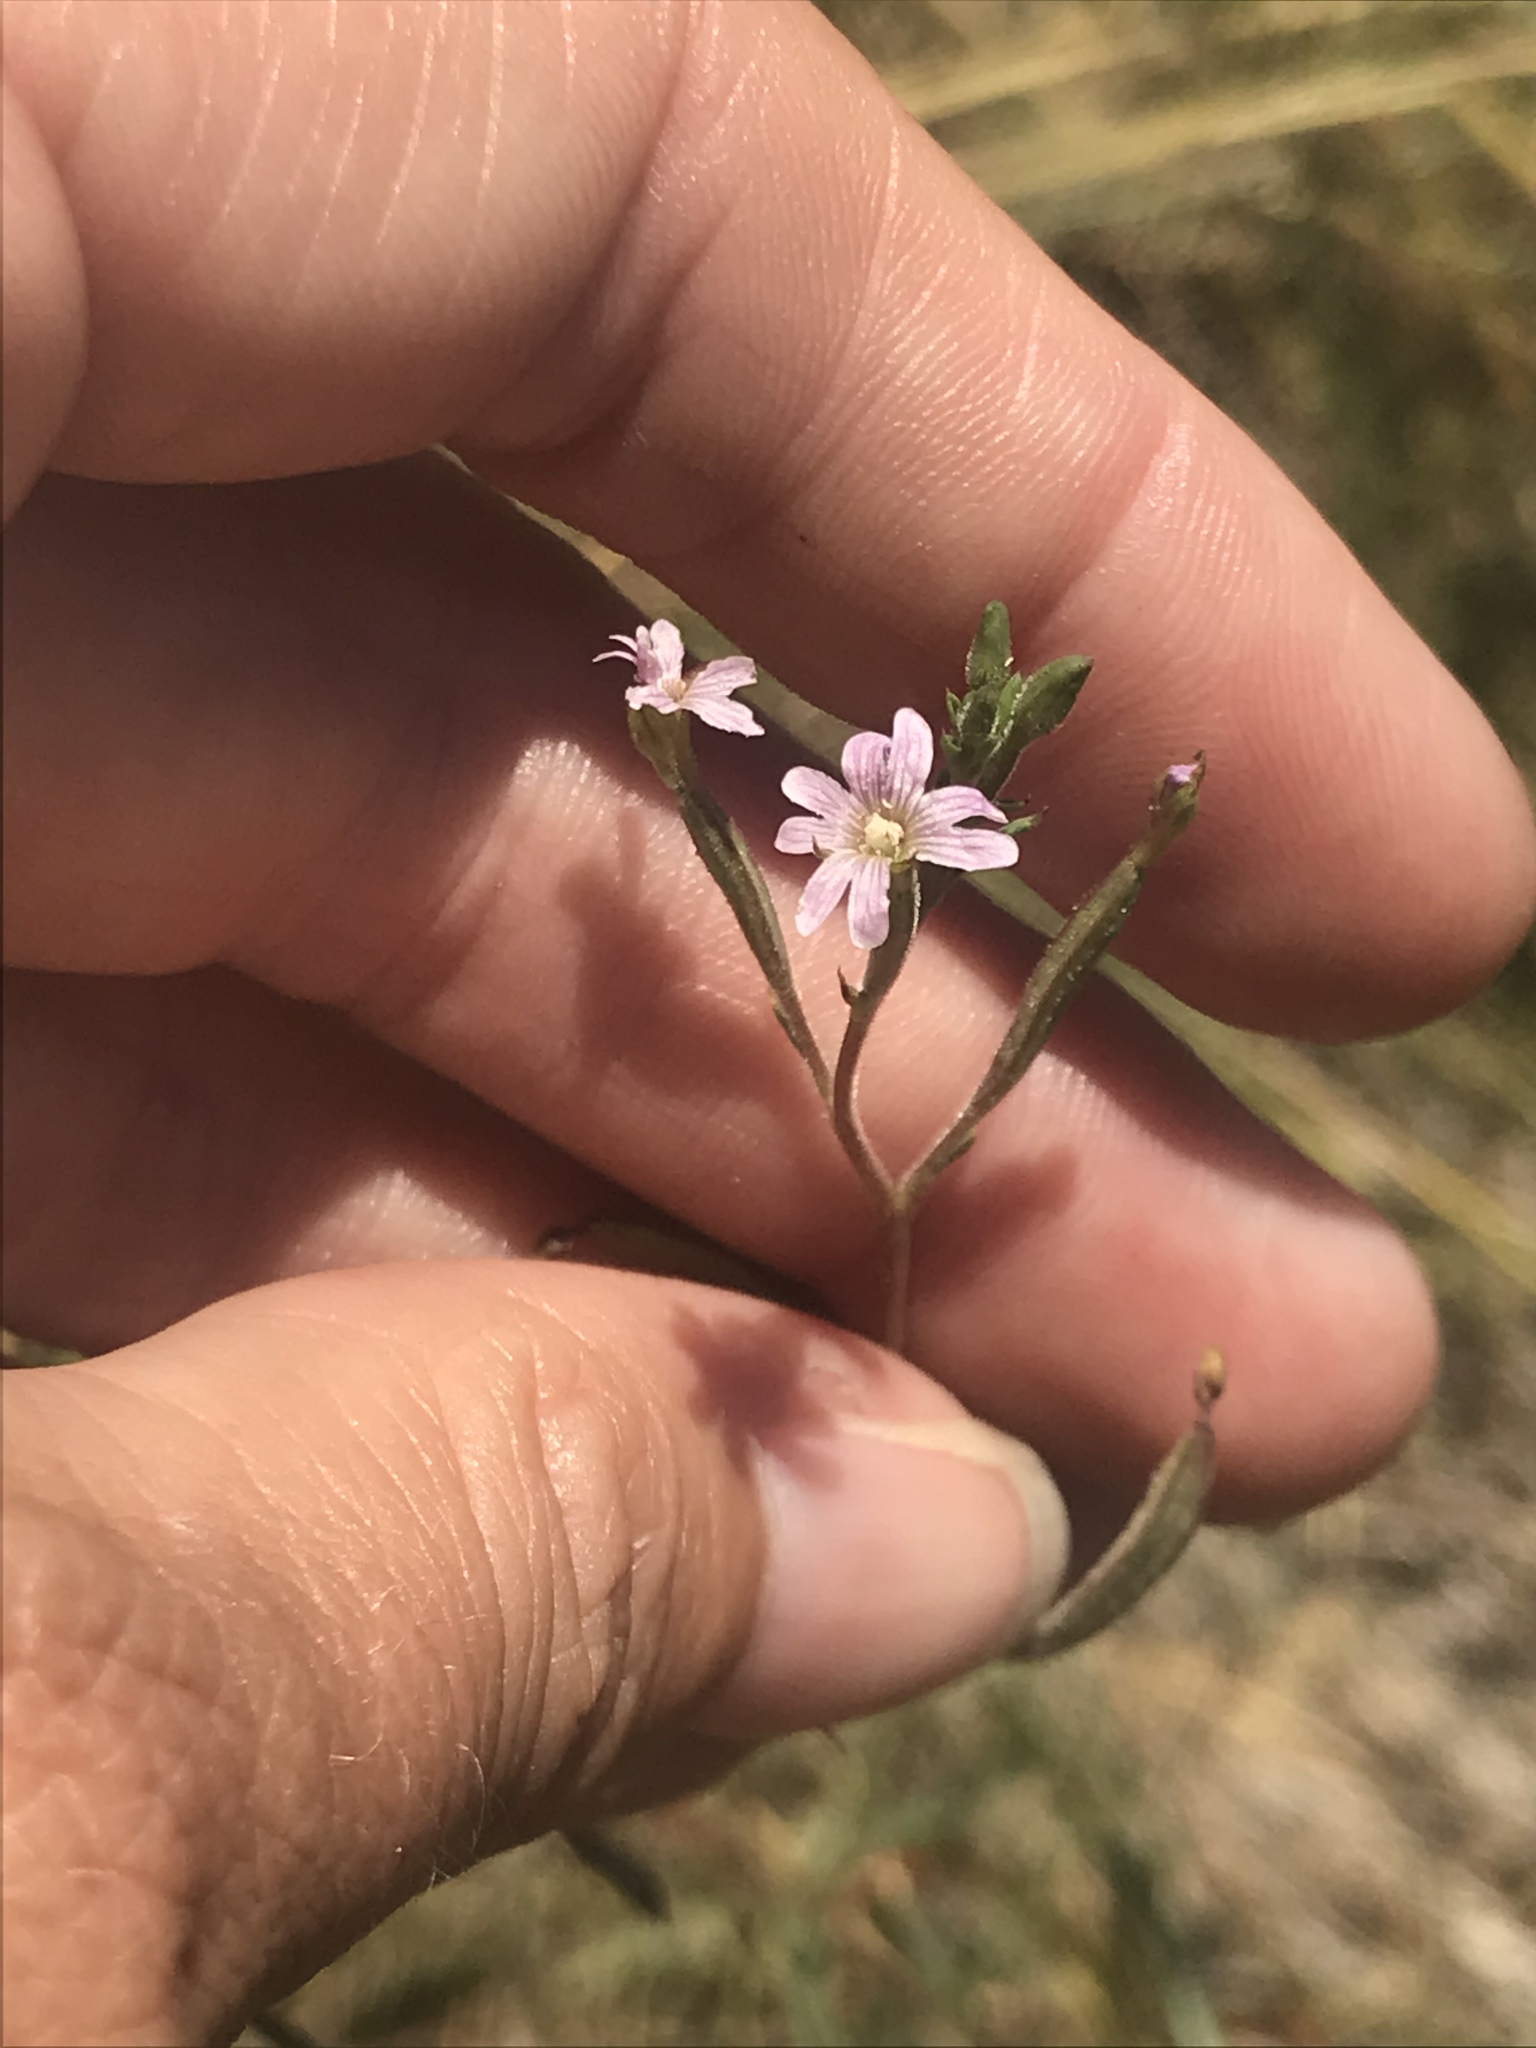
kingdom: Plantae
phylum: Tracheophyta
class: Magnoliopsida
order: Myrtales
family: Onagraceae
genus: Epilobium
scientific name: Epilobium brachycarpum
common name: Annual willowherb
